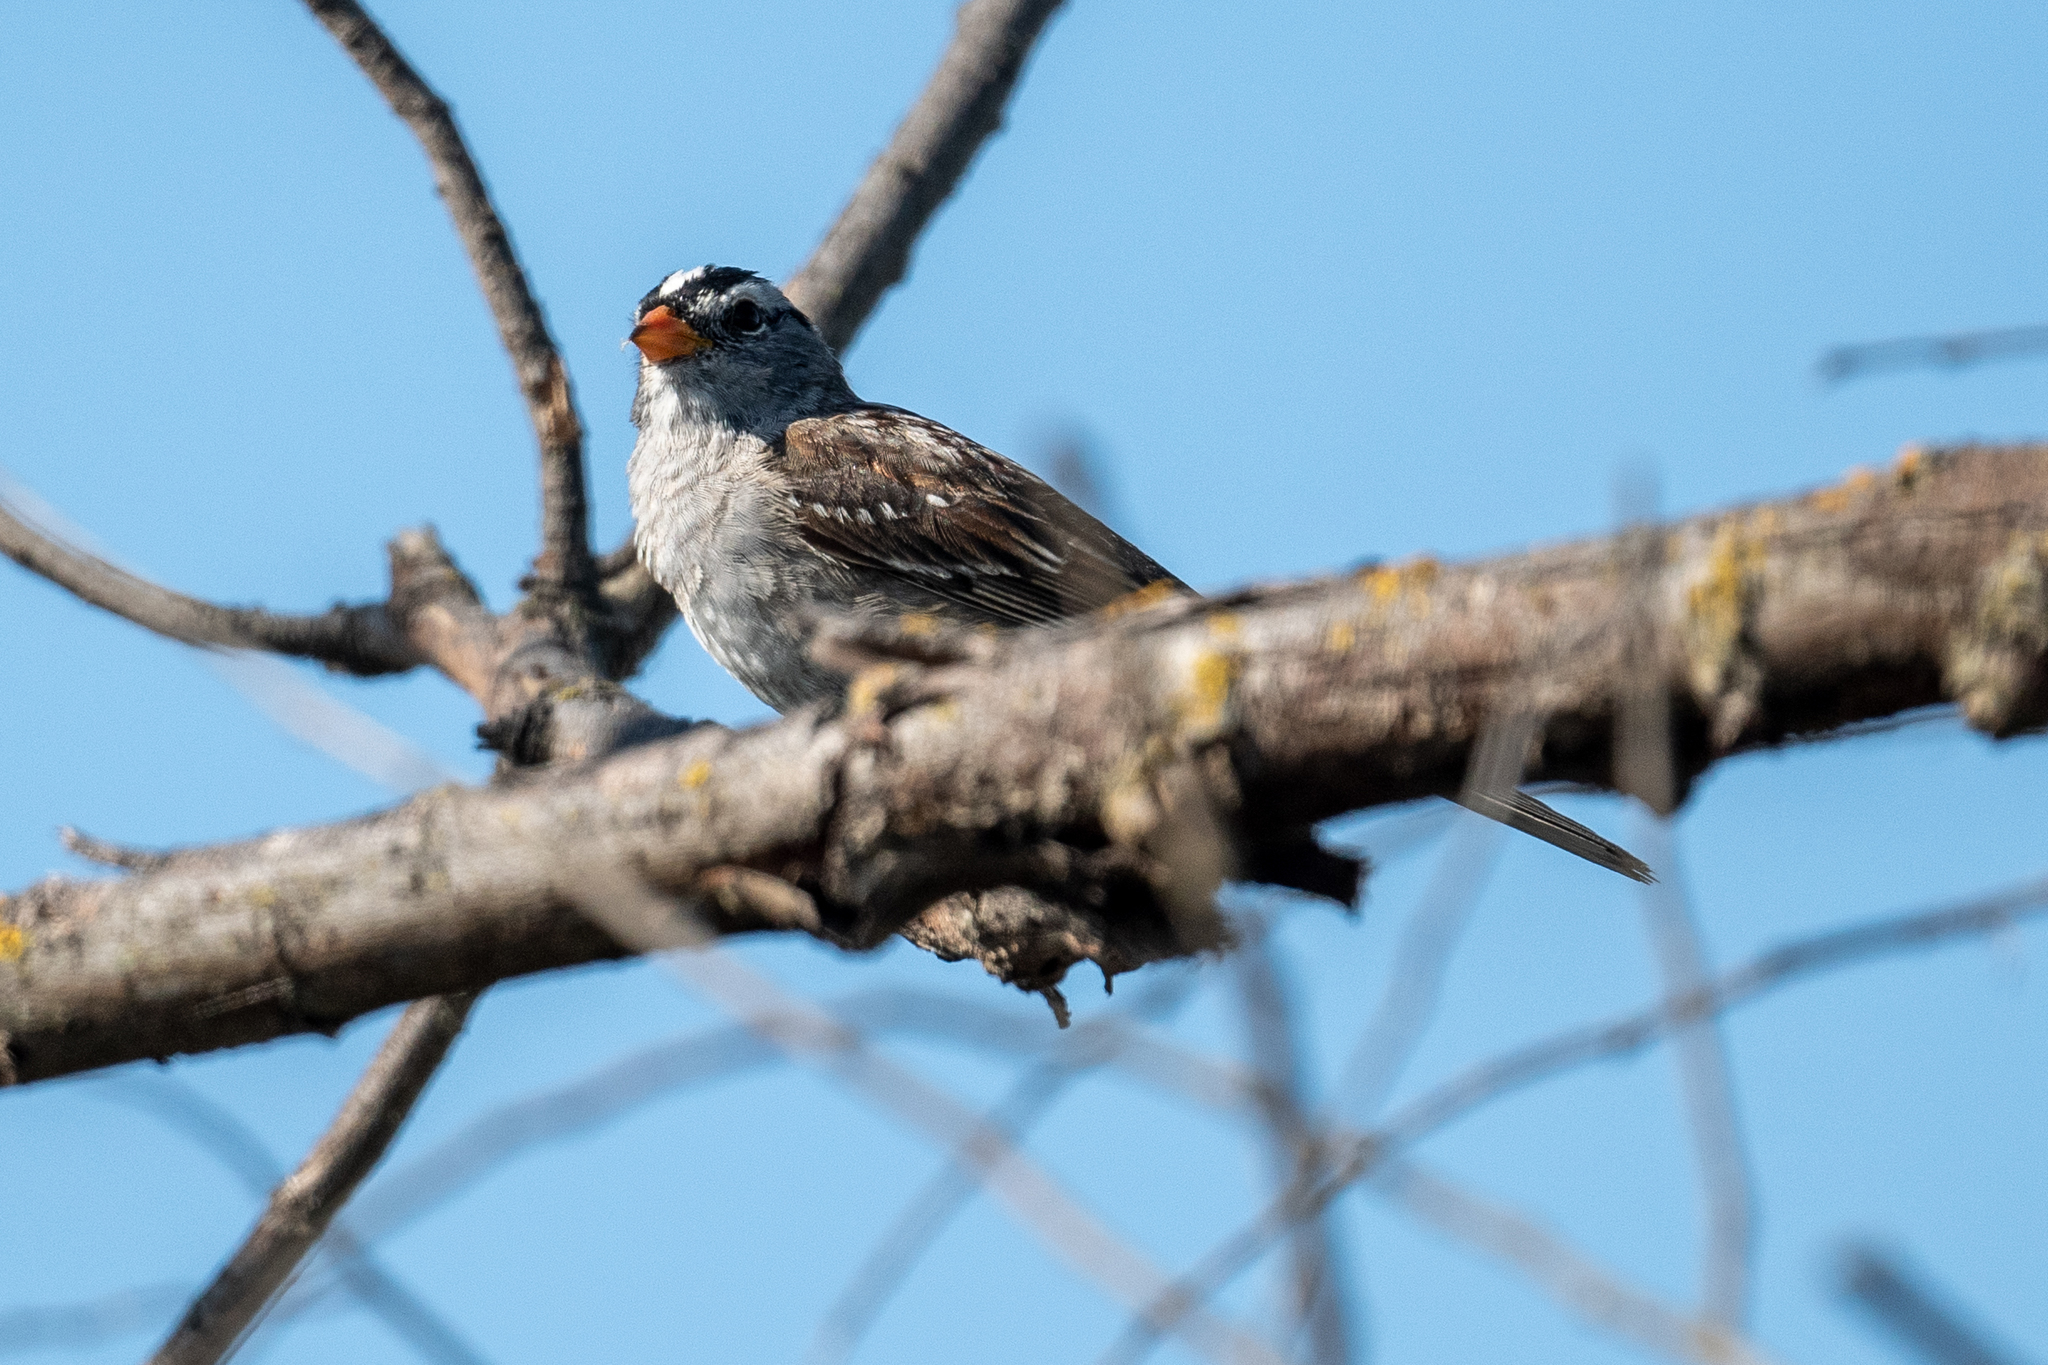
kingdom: Animalia
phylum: Chordata
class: Aves
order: Passeriformes
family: Passerellidae
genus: Zonotrichia
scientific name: Zonotrichia leucophrys
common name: White-crowned sparrow
